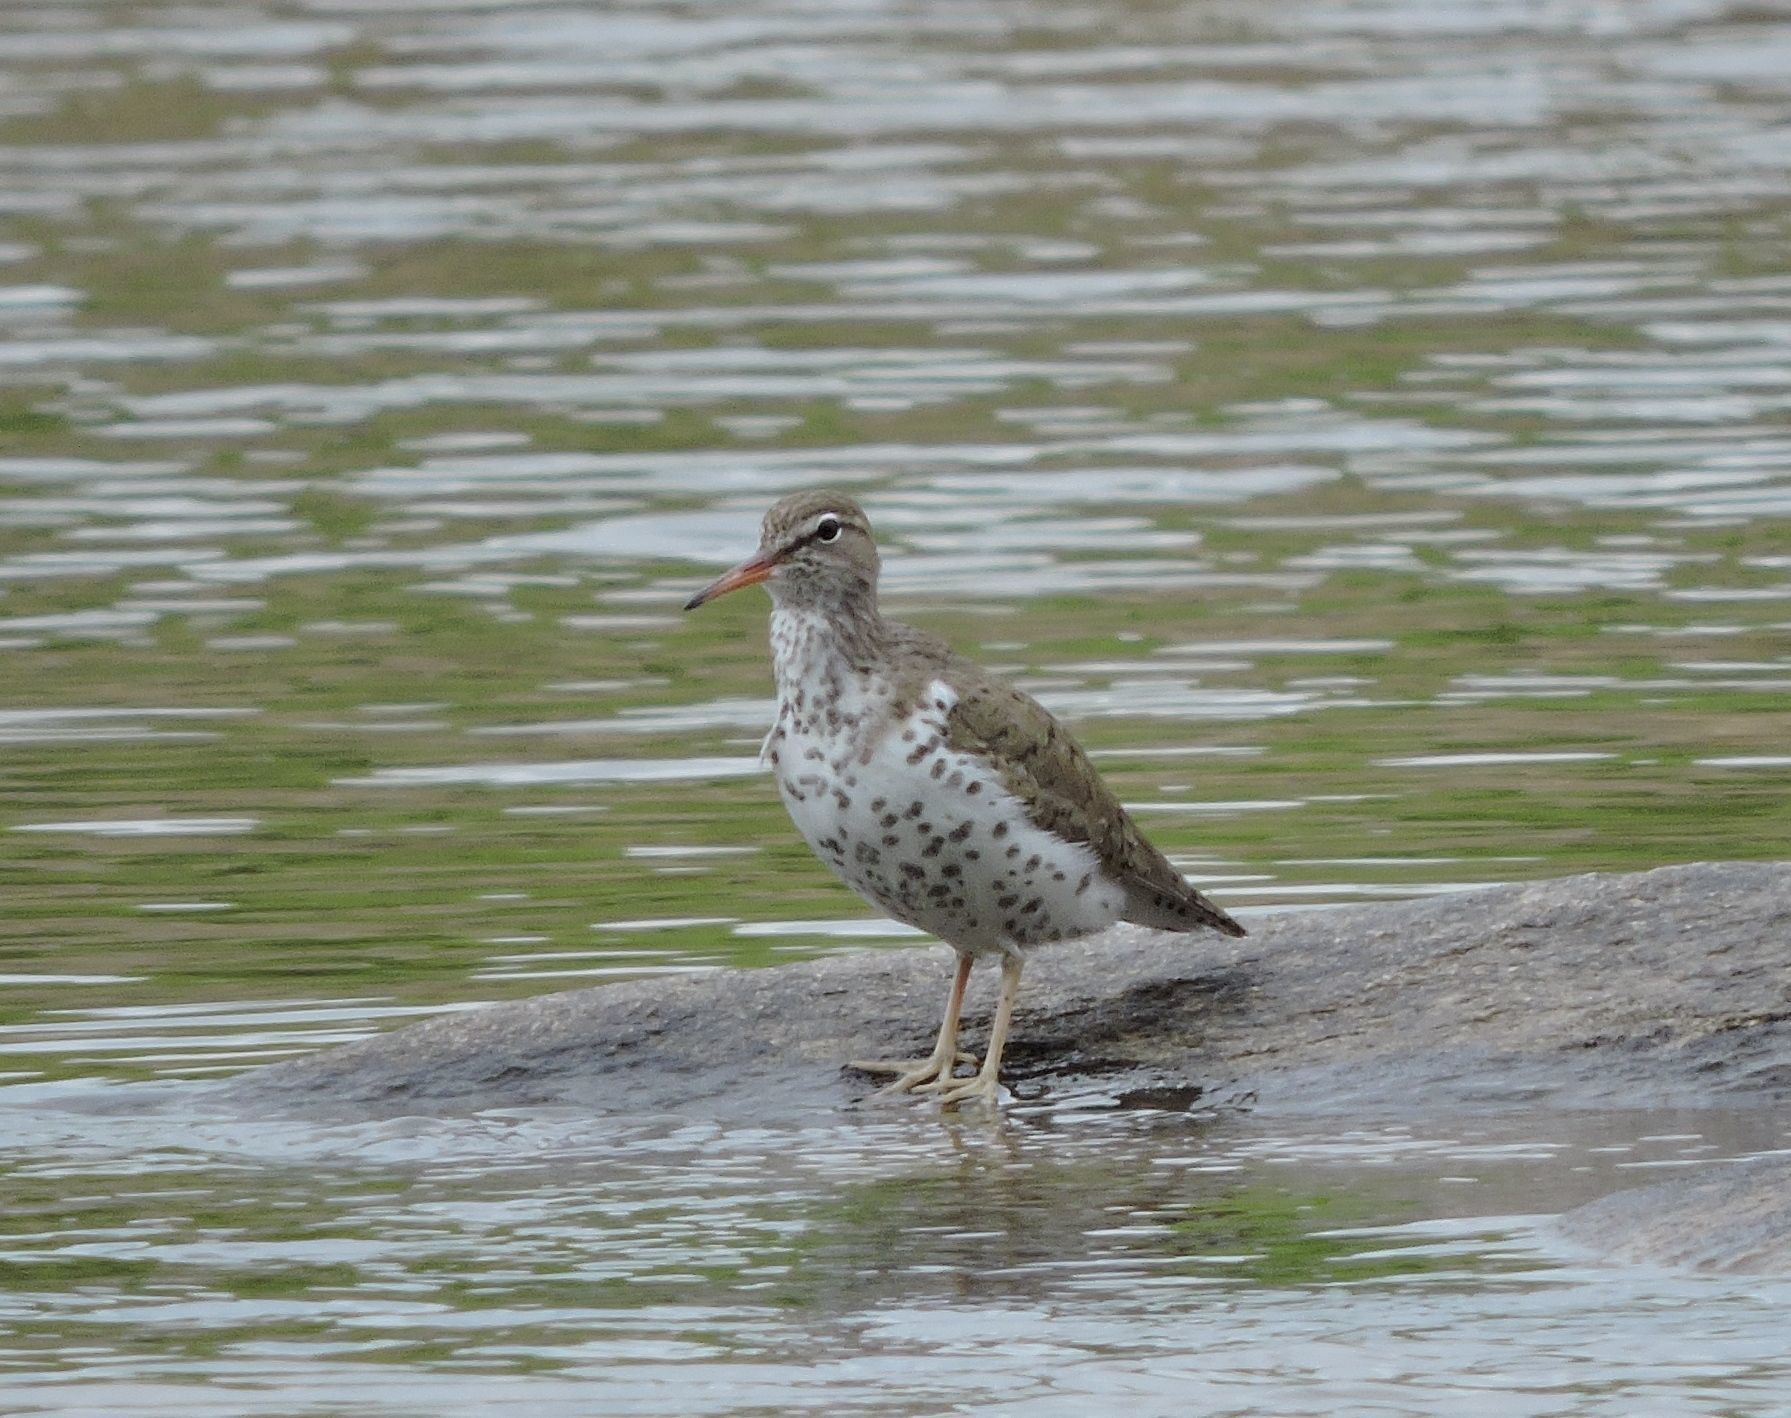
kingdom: Animalia
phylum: Chordata
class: Aves
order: Charadriiformes
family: Scolopacidae
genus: Actitis
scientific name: Actitis macularius
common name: Spotted sandpiper
